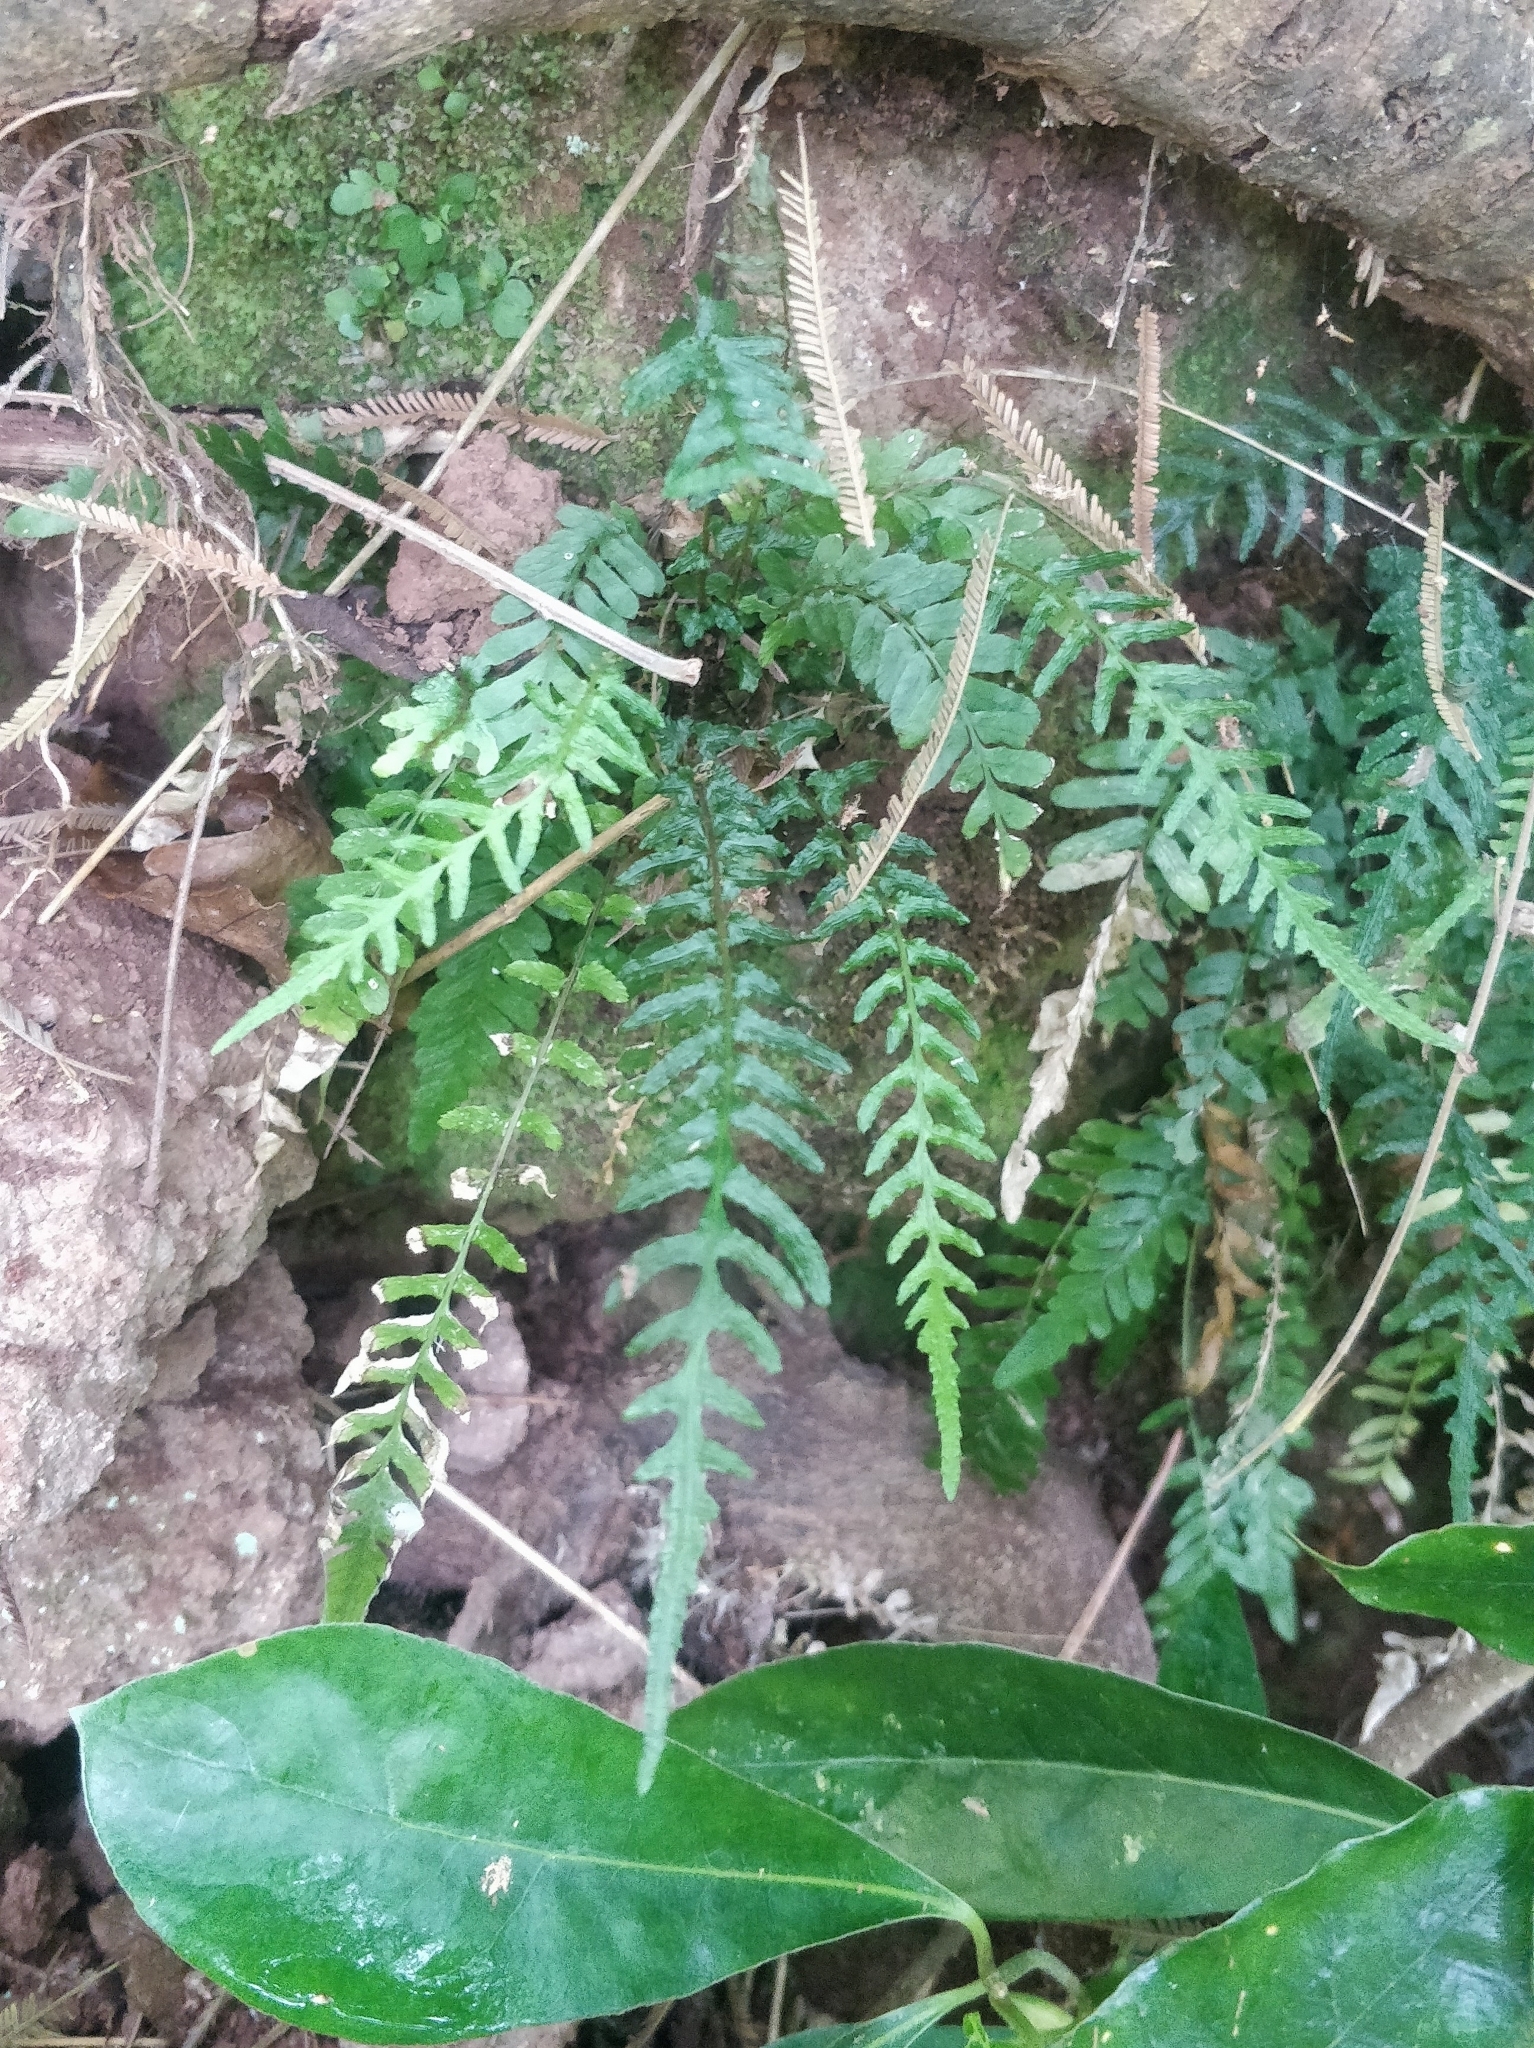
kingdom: Plantae
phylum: Tracheophyta
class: Polypodiopsida
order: Polypodiales
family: Blechnaceae
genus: Doodia
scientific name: Doodia caudata
